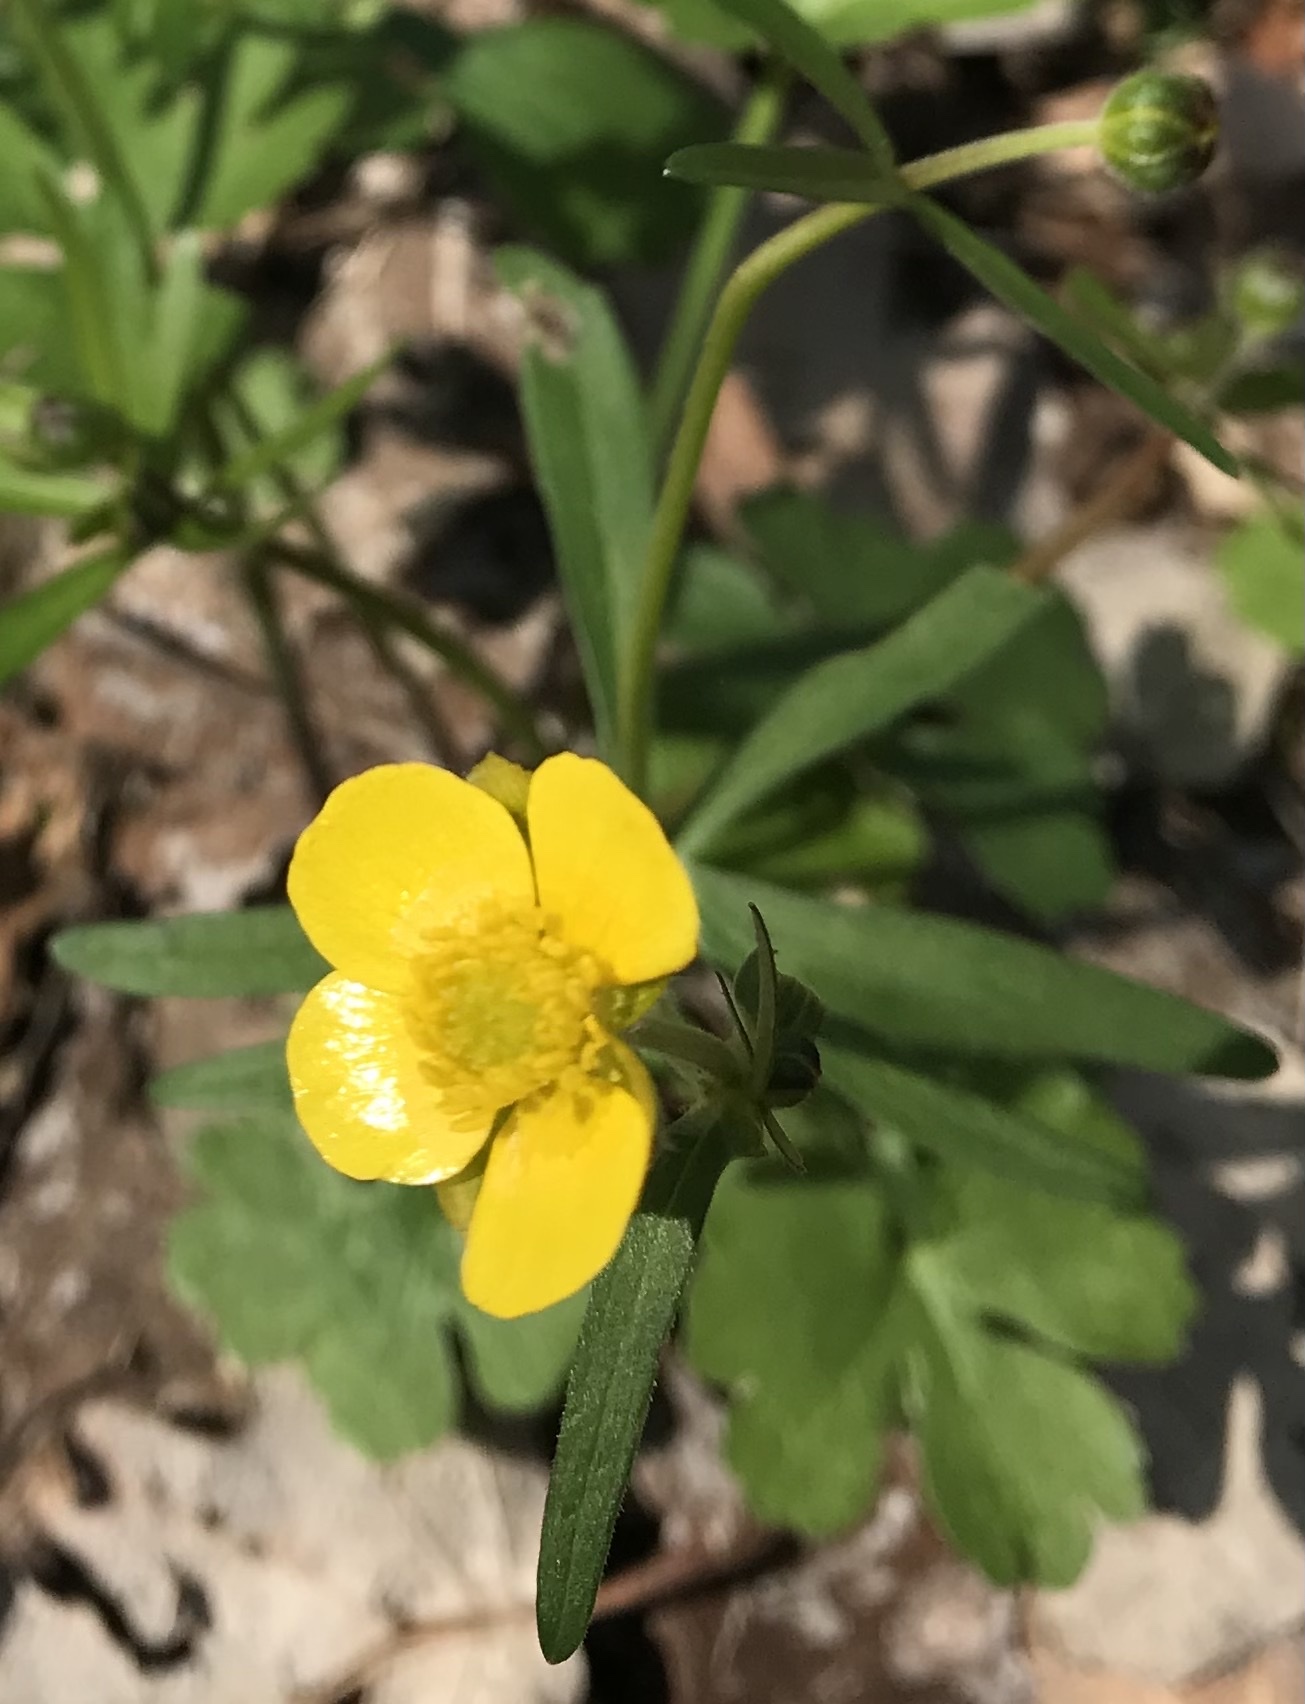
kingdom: Plantae
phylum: Tracheophyta
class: Magnoliopsida
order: Ranunculales
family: Ranunculaceae
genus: Ranunculus
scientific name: Ranunculus auricomus
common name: Goldilocks buttercup
